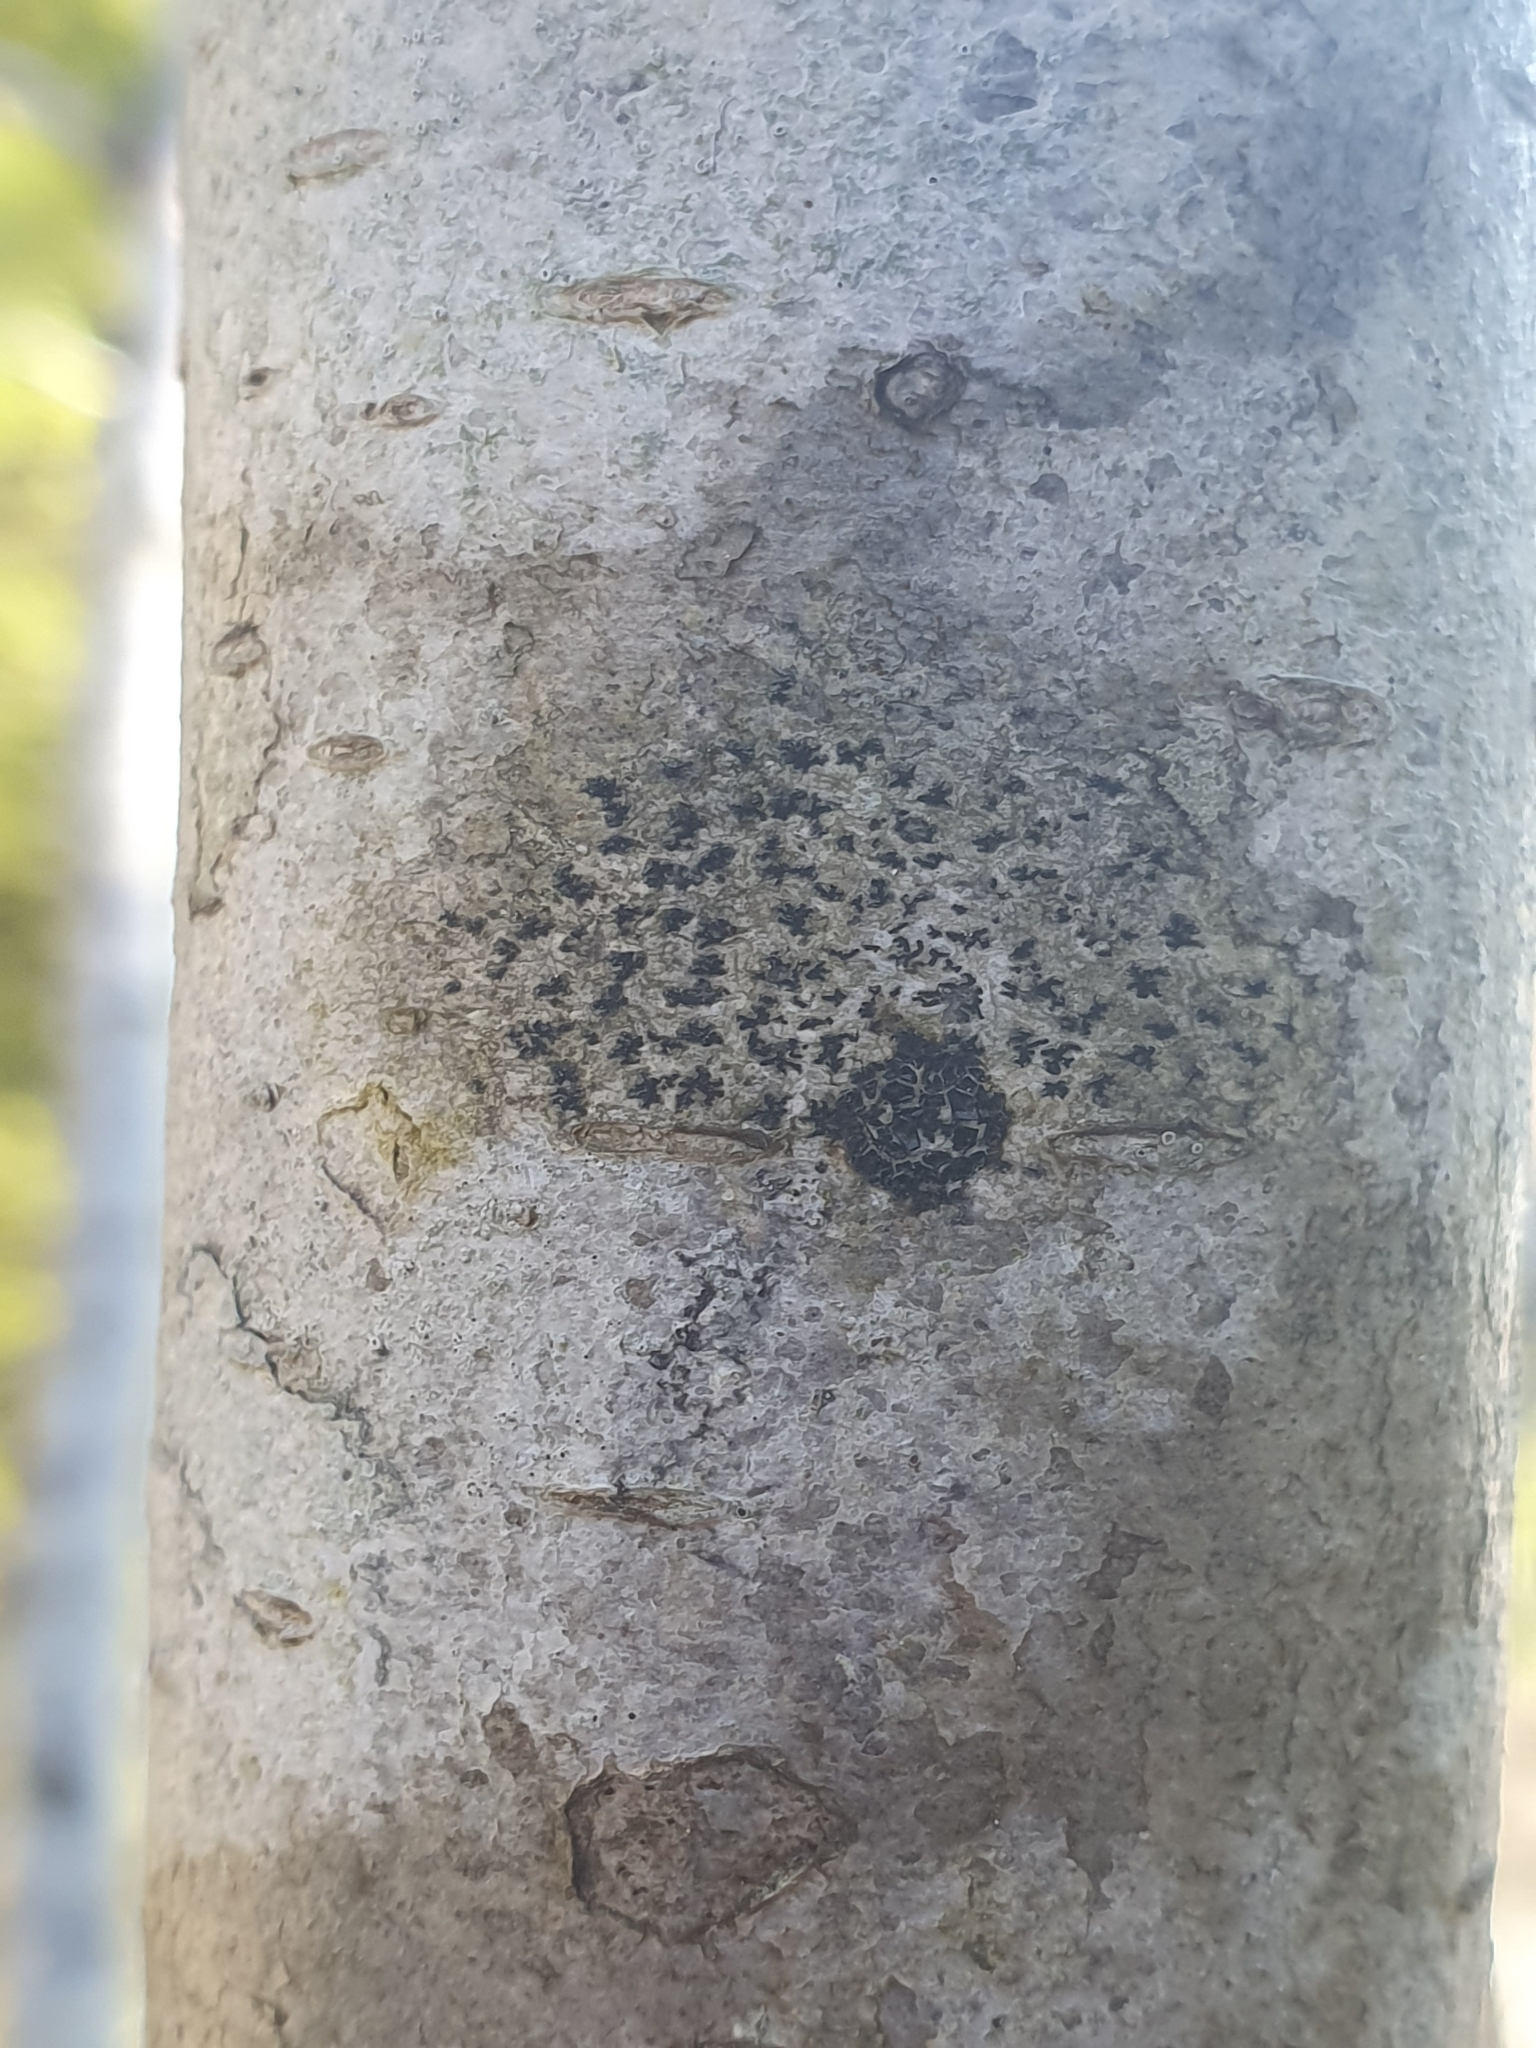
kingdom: Fungi
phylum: Ascomycota
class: Arthoniomycetes
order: Arthoniales
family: Arthoniaceae
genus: Arthonia
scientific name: Arthonia radiata
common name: Asterisk lichen
